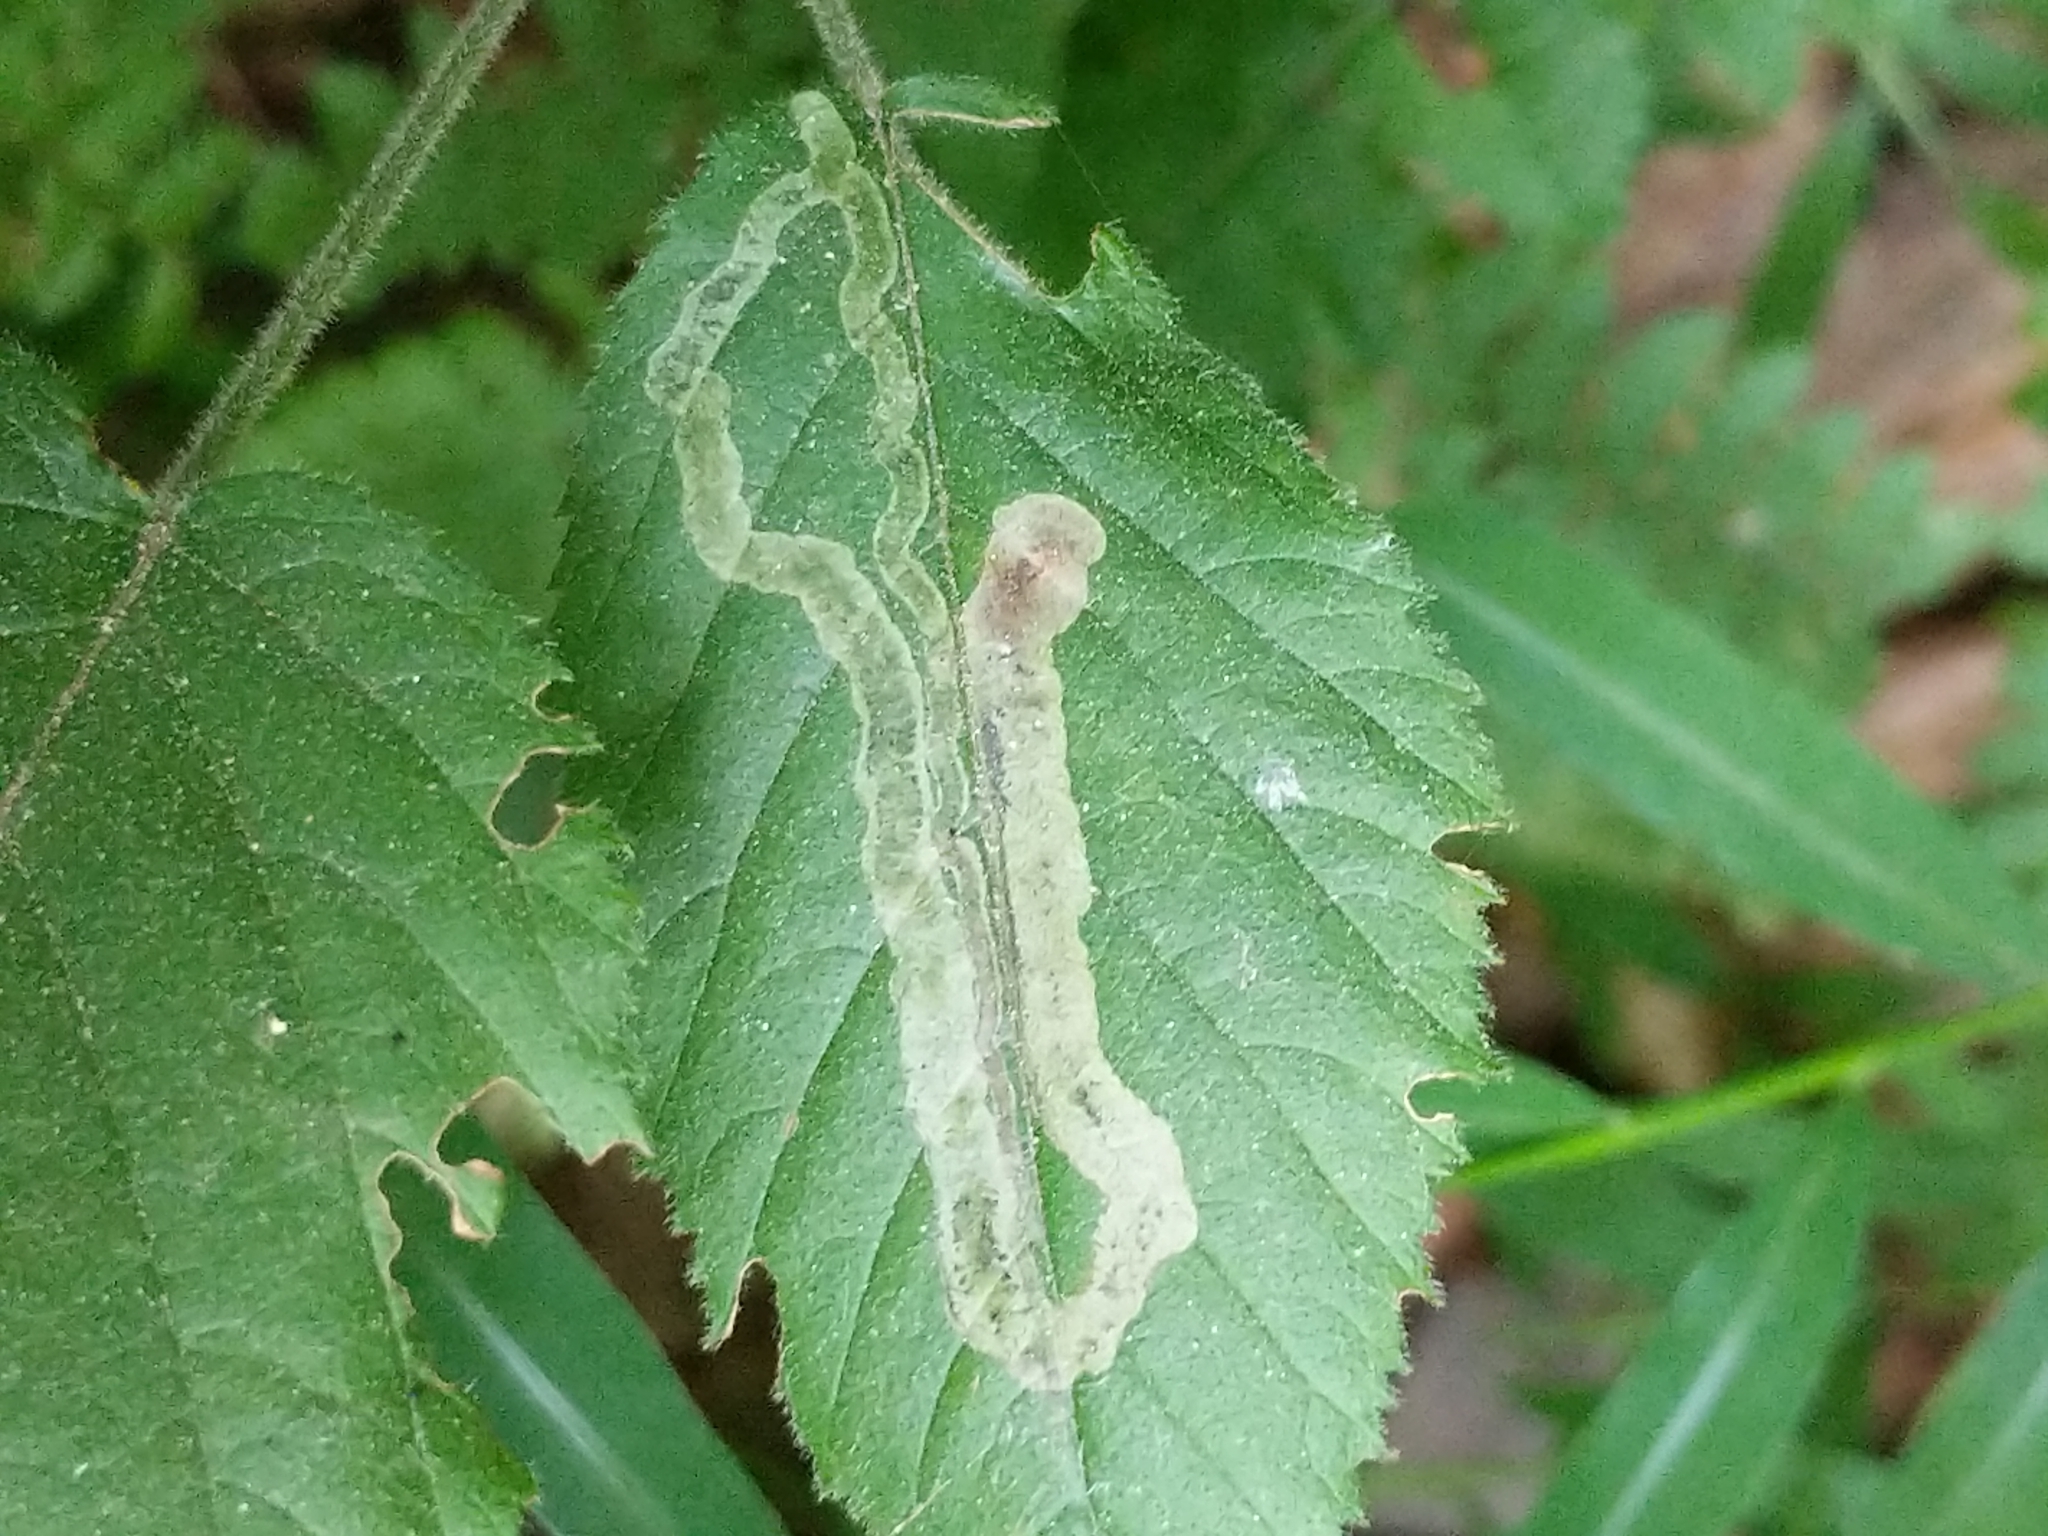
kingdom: Animalia
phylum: Arthropoda
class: Insecta
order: Diptera
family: Agromyzidae
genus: Agromyza
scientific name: Agromyza vockerothi
